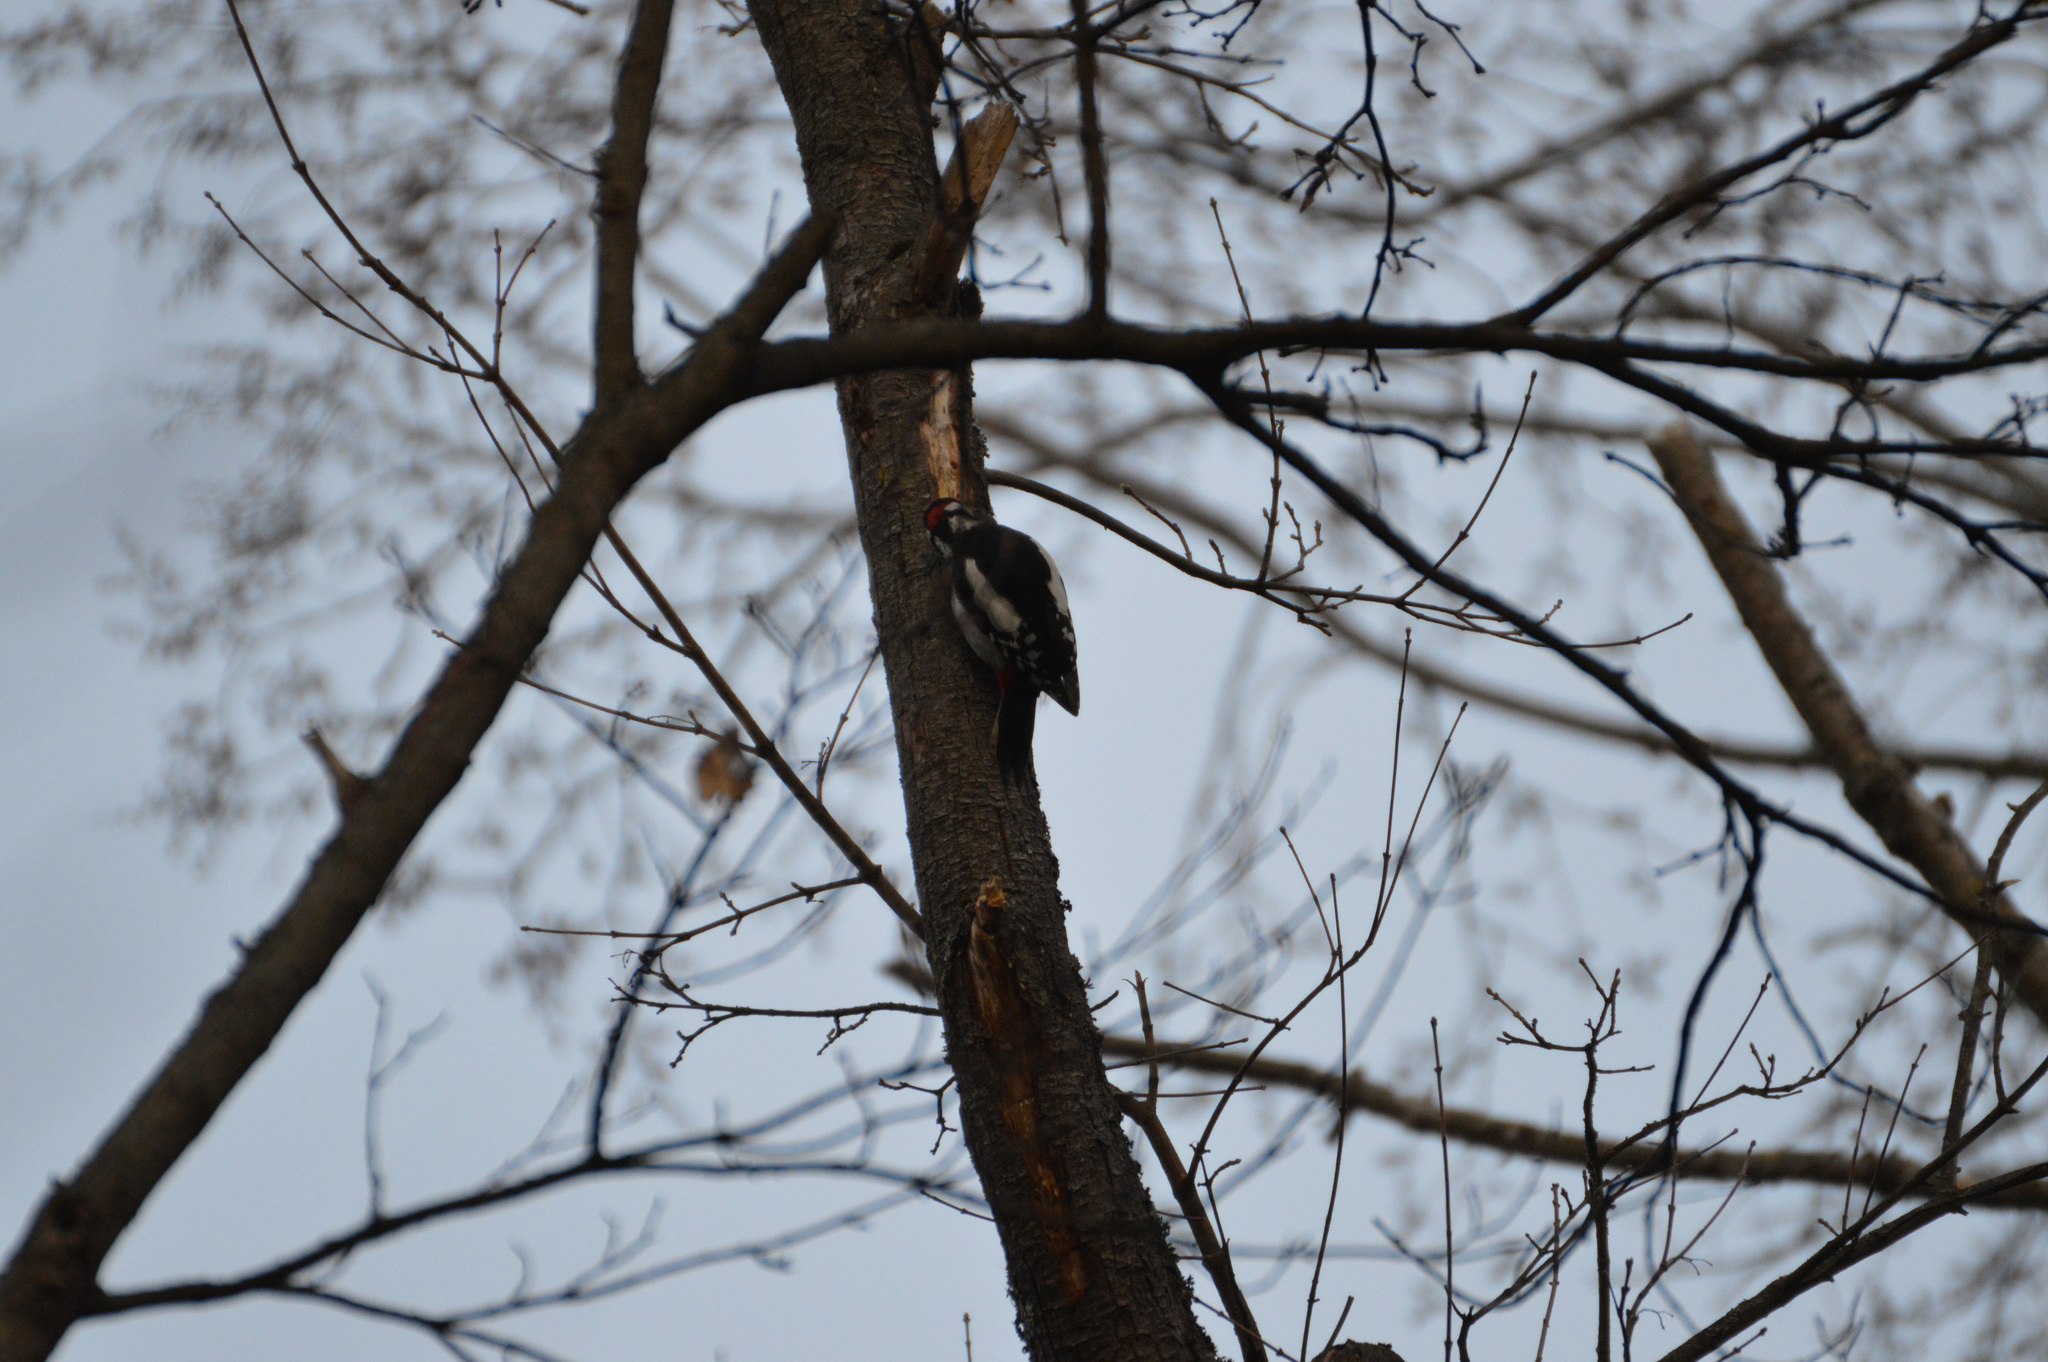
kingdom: Animalia
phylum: Chordata
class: Aves
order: Piciformes
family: Picidae
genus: Dendrocopos
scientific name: Dendrocopos major
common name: Great spotted woodpecker
